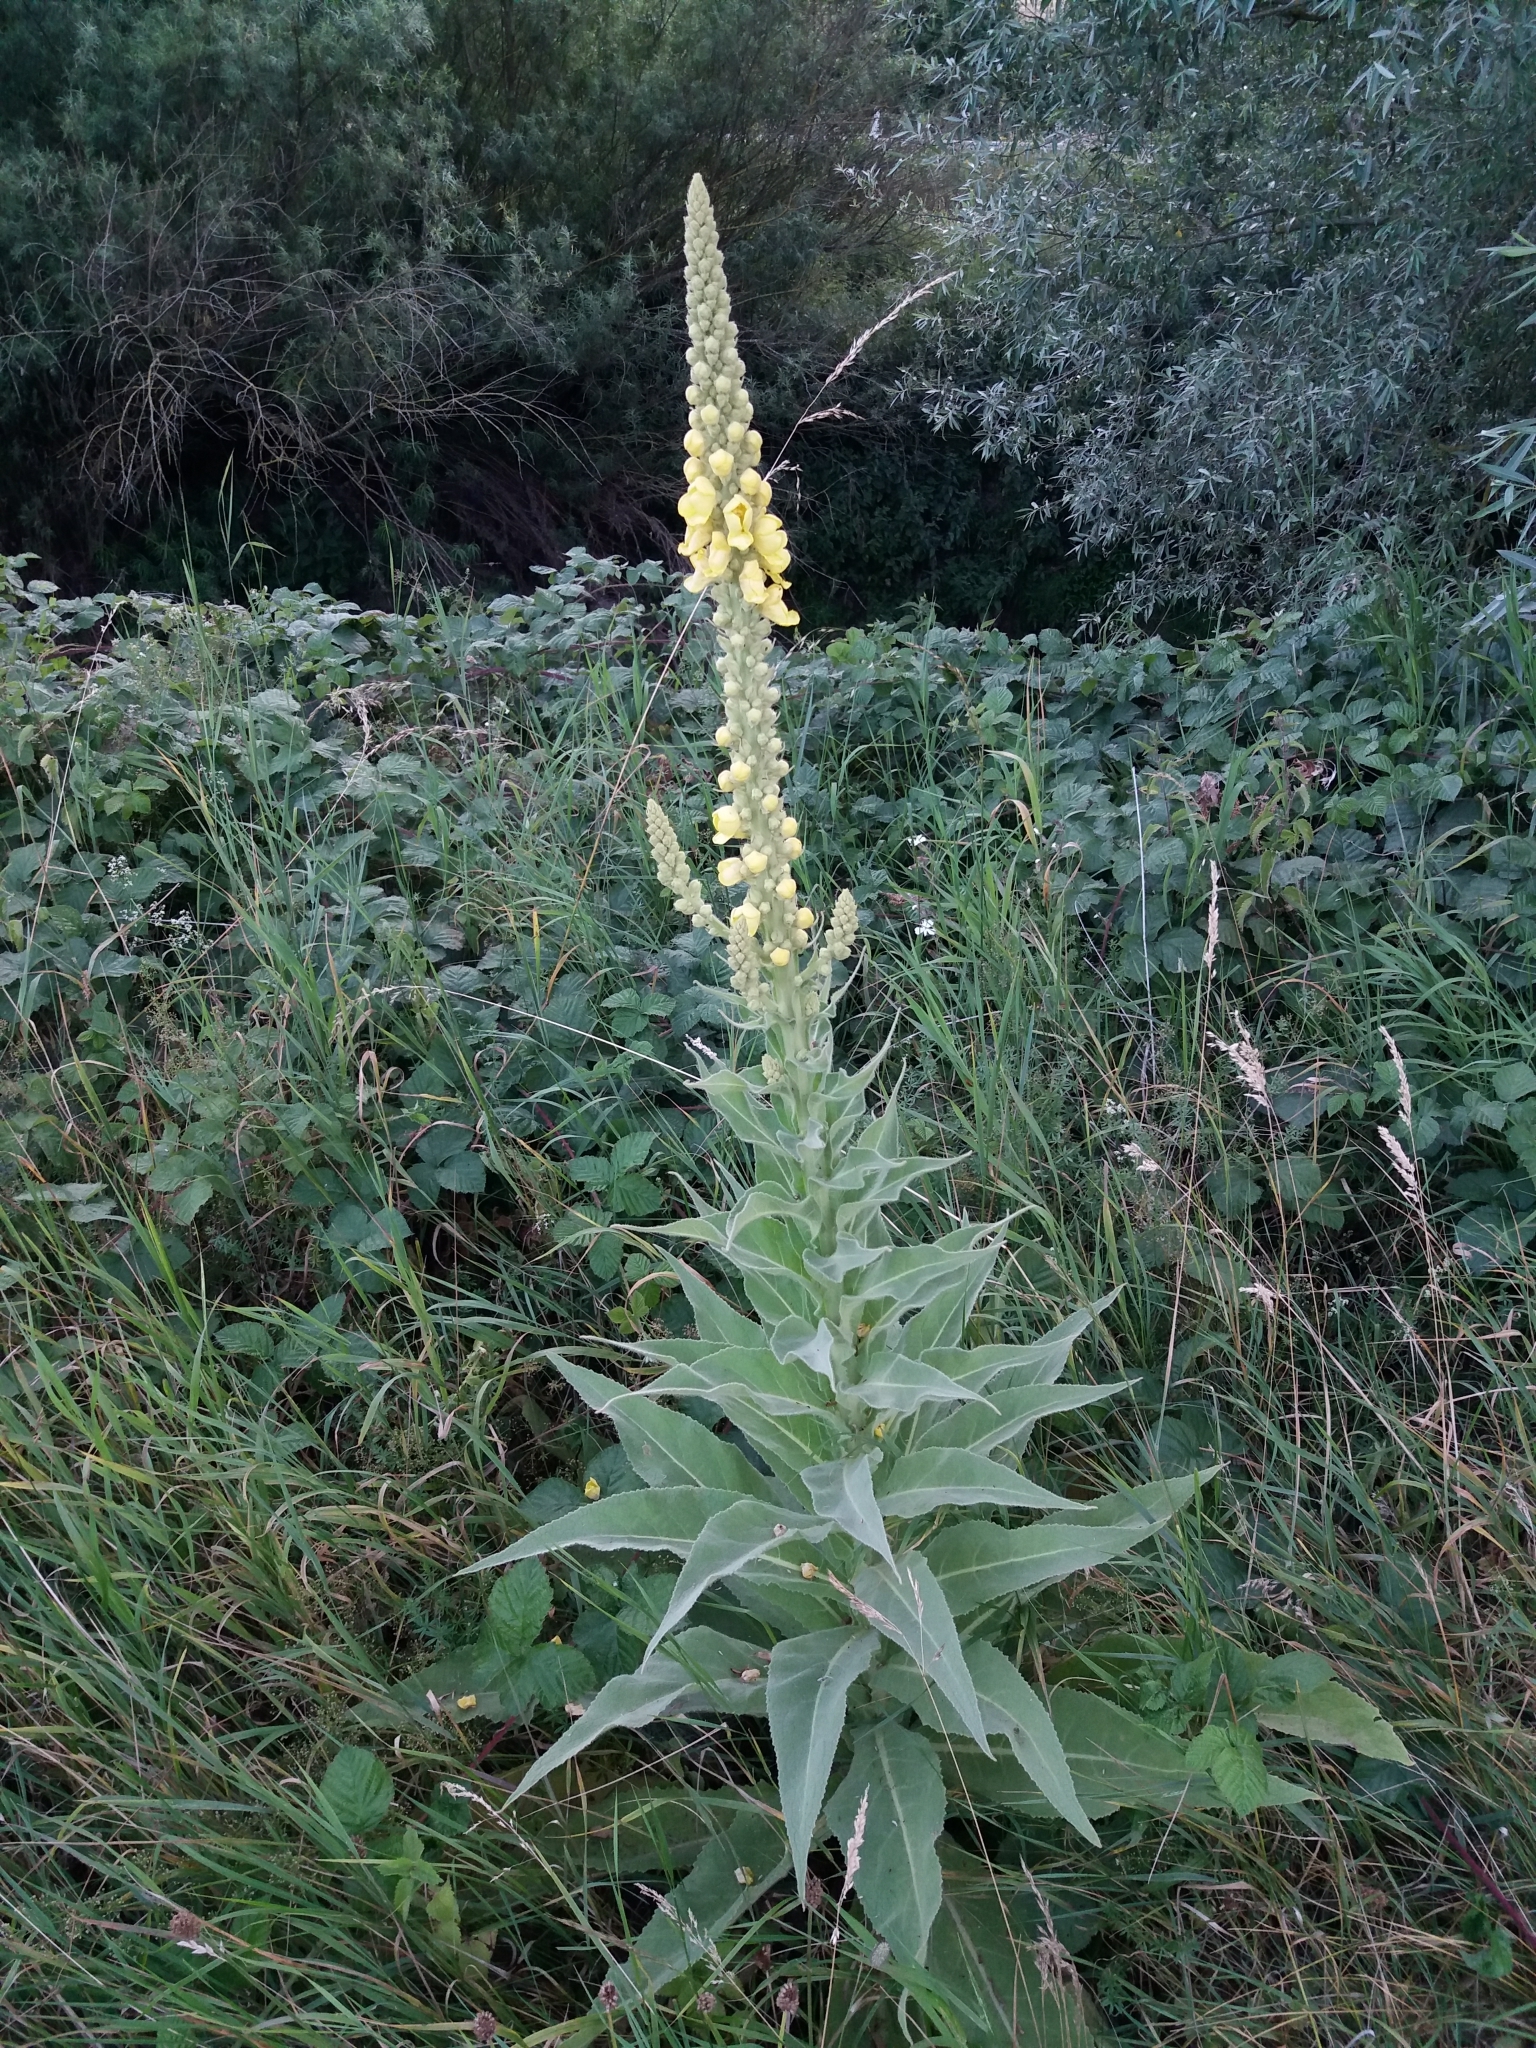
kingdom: Plantae
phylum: Tracheophyta
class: Magnoliopsida
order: Lamiales
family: Scrophulariaceae
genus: Verbascum
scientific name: Verbascum thapsus
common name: Common mullein
